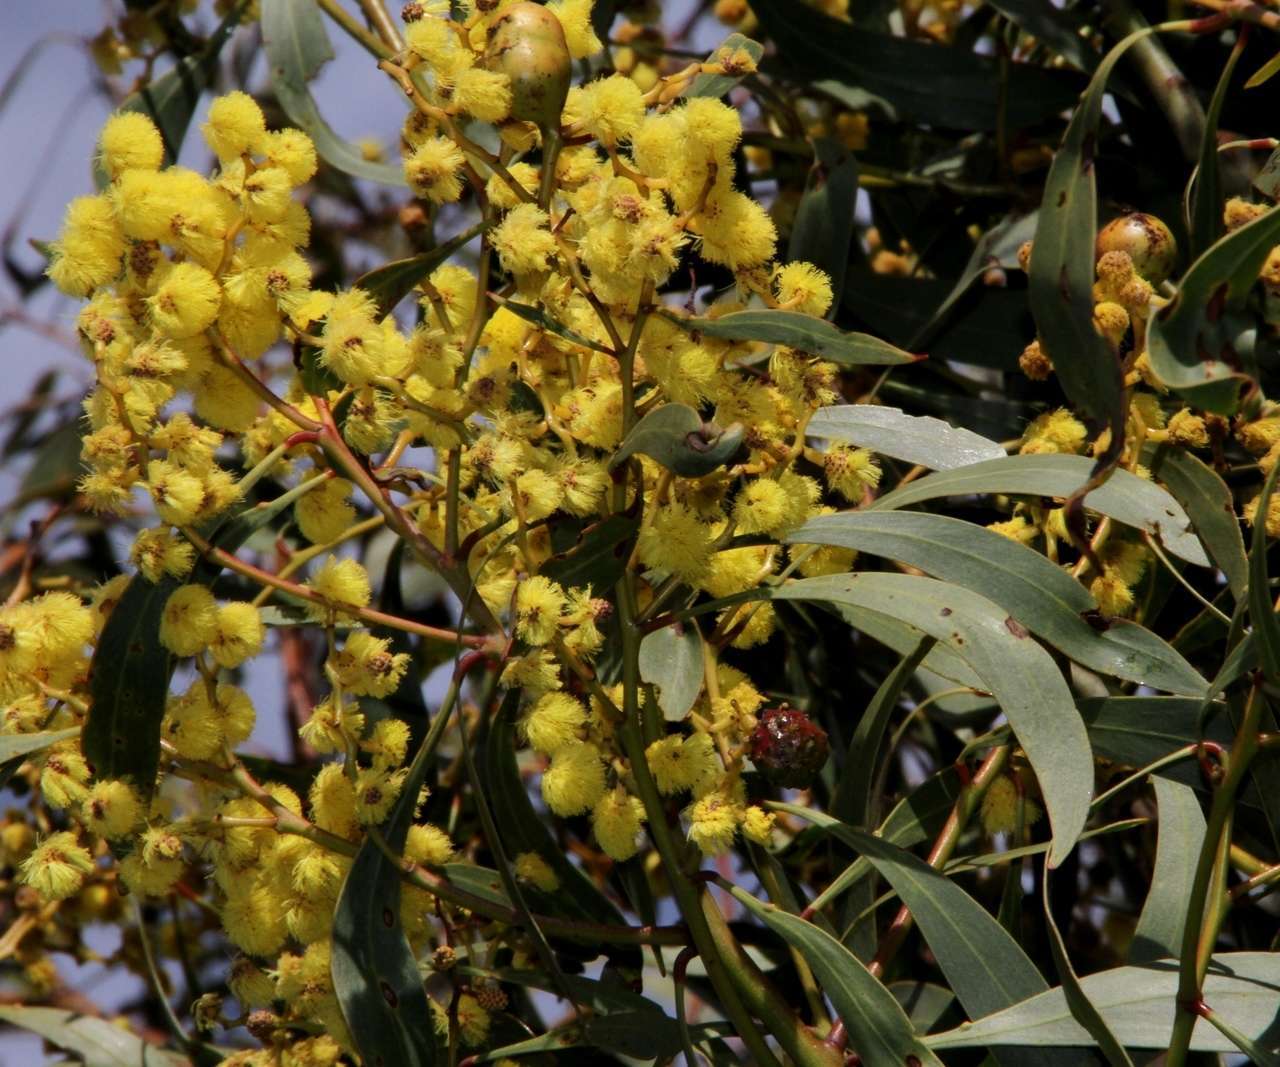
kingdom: Plantae
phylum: Tracheophyta
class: Magnoliopsida
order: Fabales
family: Fabaceae
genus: Acacia
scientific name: Acacia pycnantha
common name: Golden wattle
